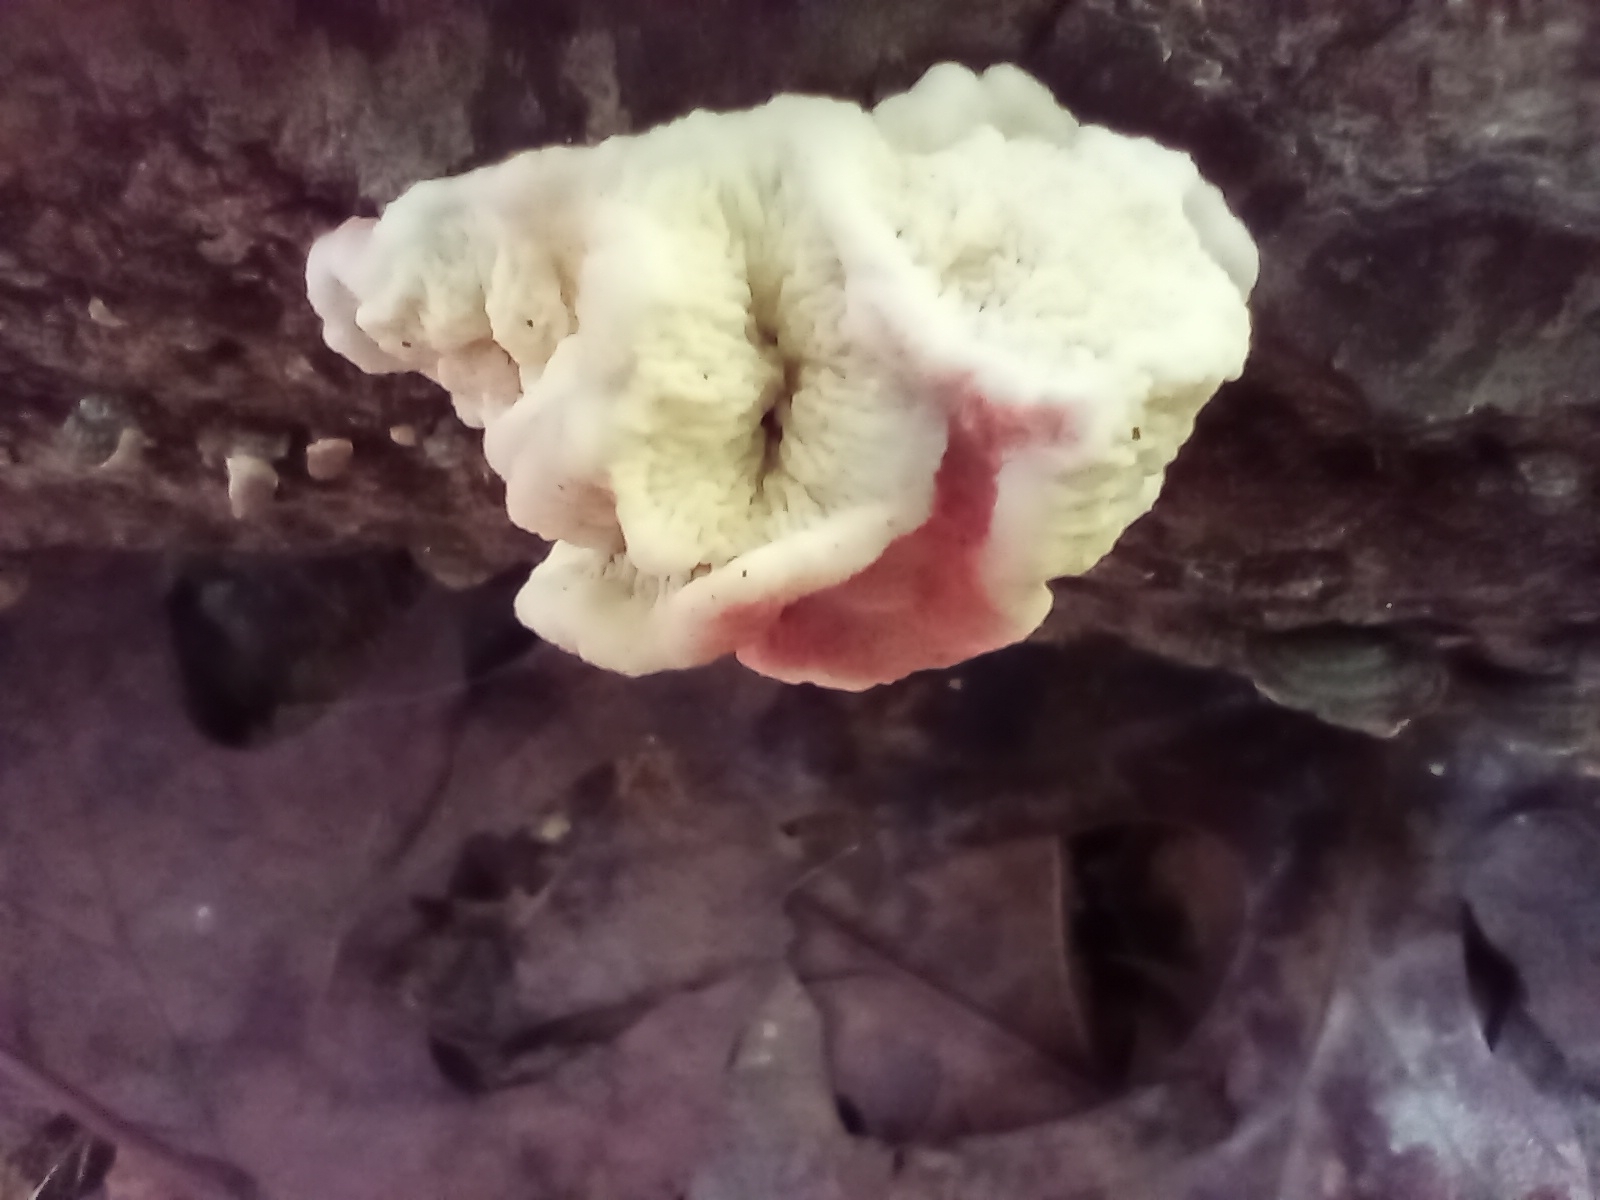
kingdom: Fungi
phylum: Basidiomycota
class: Agaricomycetes
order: Polyporales
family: Irpicaceae
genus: Byssomerulius
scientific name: Byssomerulius incarnatus
